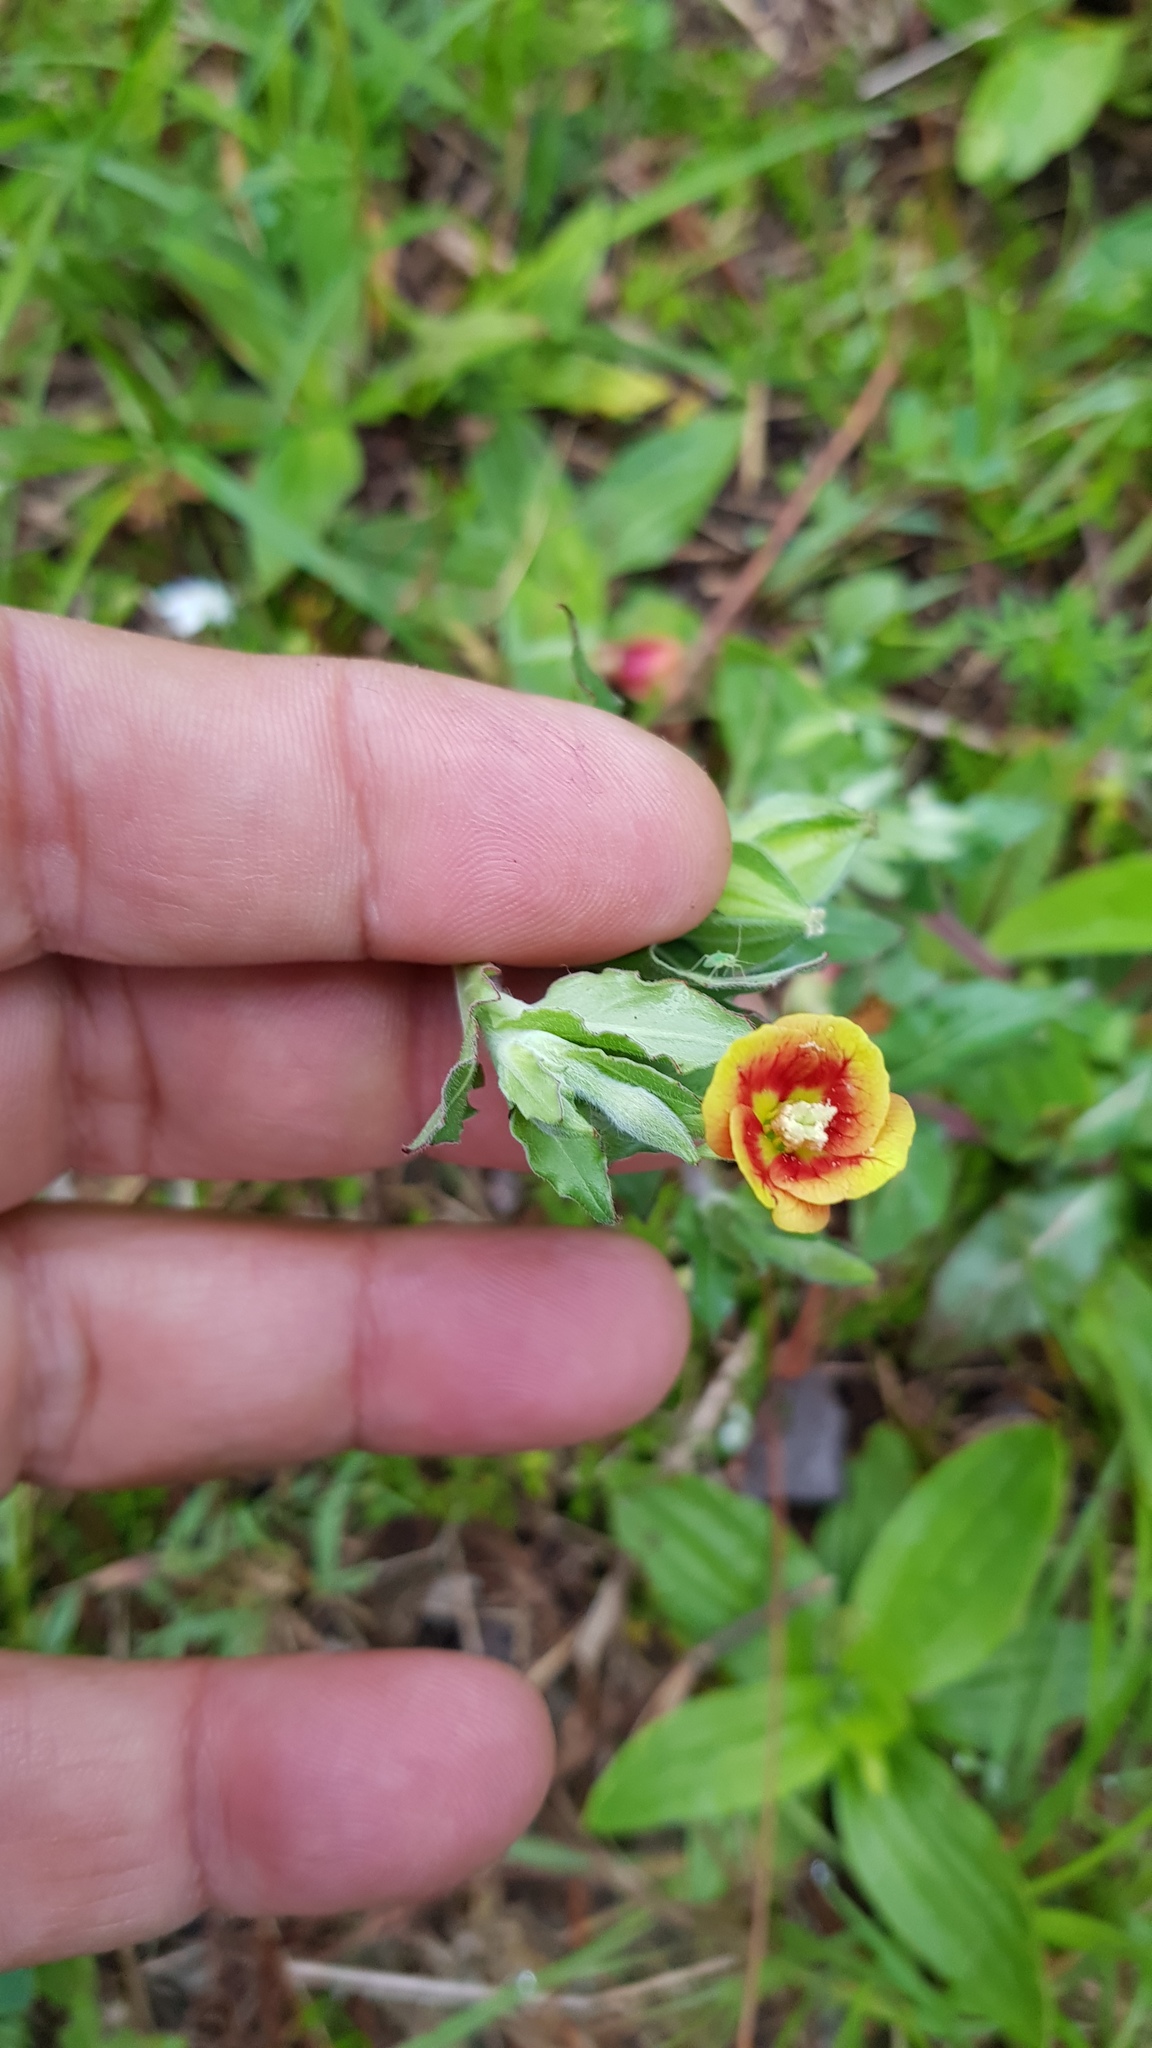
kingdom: Plantae
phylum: Tracheophyta
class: Magnoliopsida
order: Myrtales
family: Onagraceae
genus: Oenothera
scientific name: Oenothera epilobiifolia
